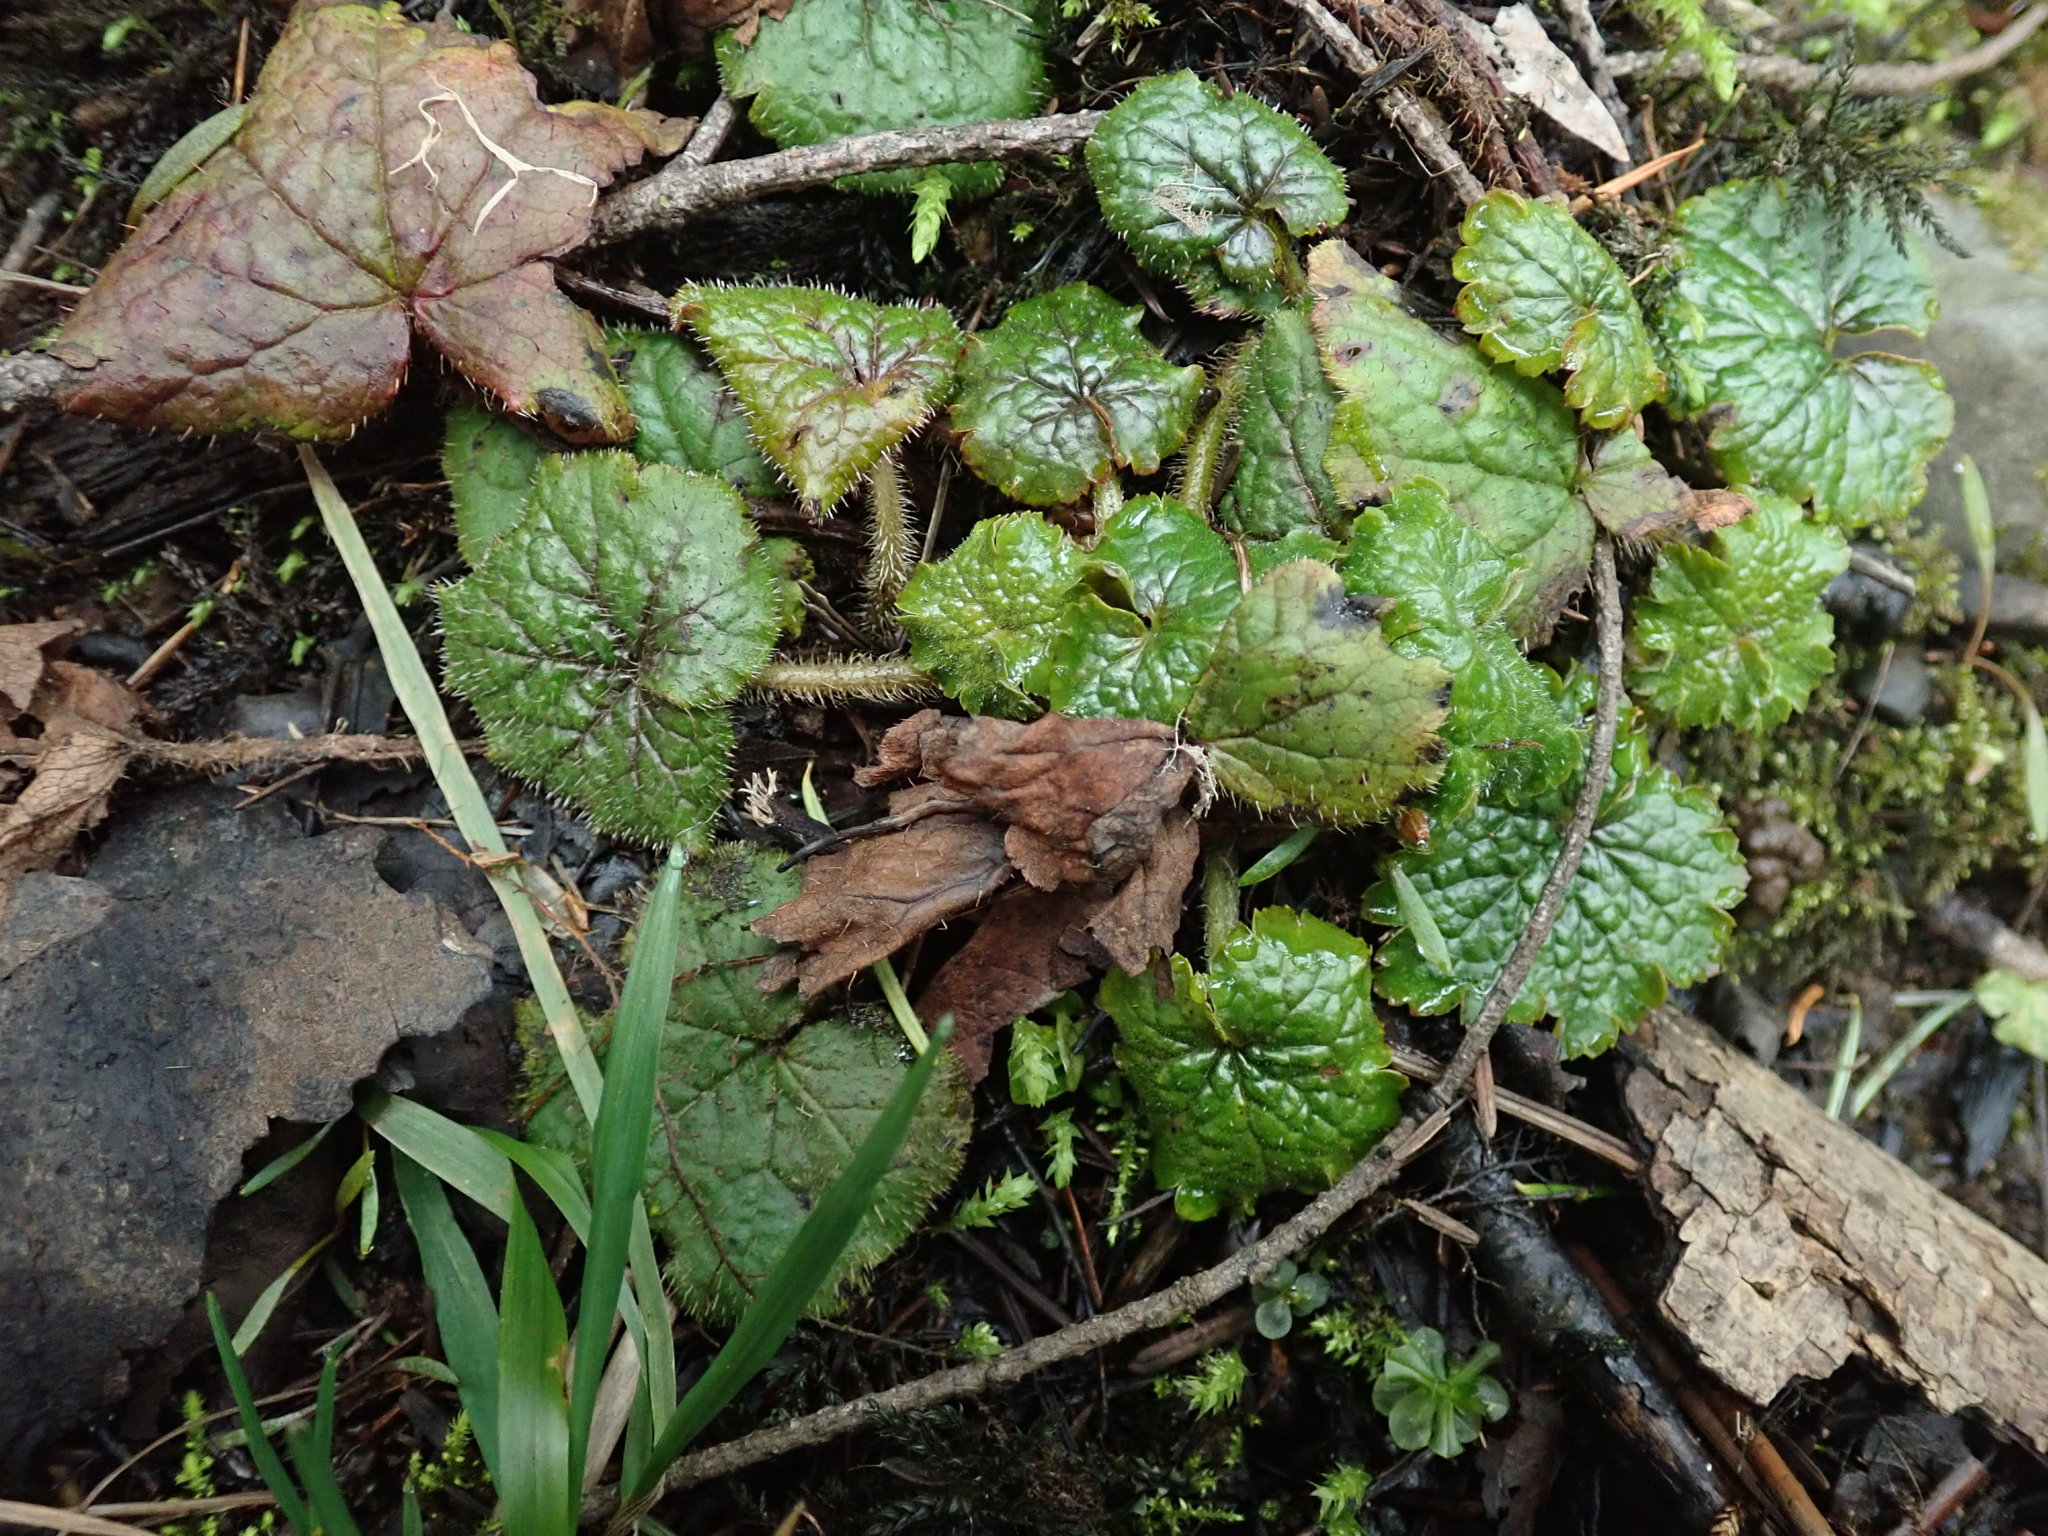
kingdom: Plantae
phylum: Tracheophyta
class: Magnoliopsida
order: Saxifragales
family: Saxifragaceae
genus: Tellima
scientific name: Tellima grandiflora
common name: Fringecups
